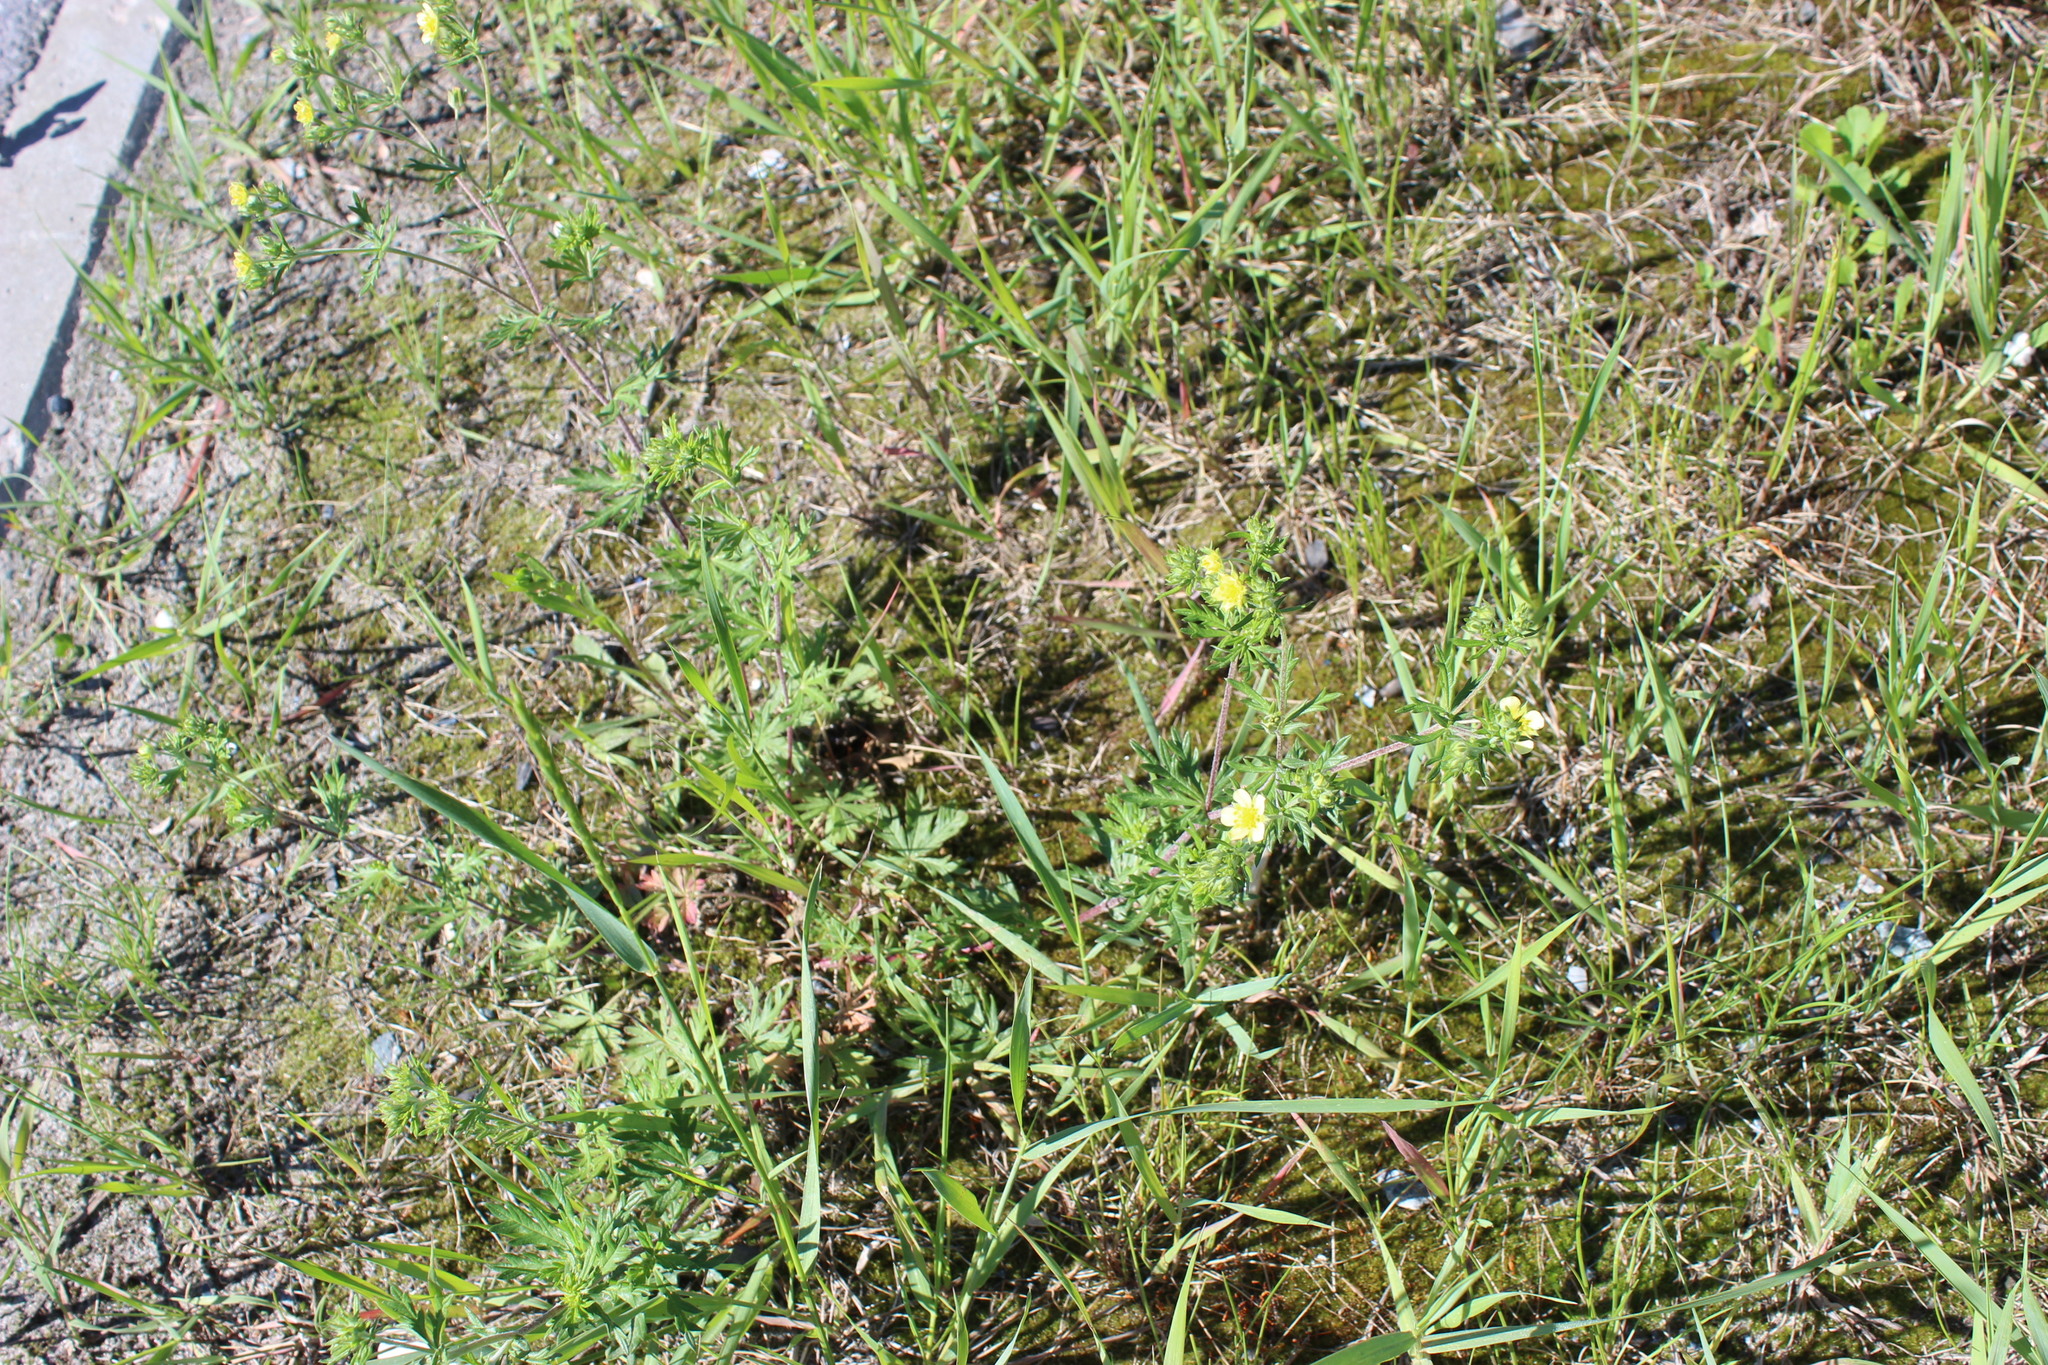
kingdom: Plantae
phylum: Tracheophyta
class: Magnoliopsida
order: Rosales
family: Rosaceae
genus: Potentilla
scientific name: Potentilla argentea
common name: Hoary cinquefoil
